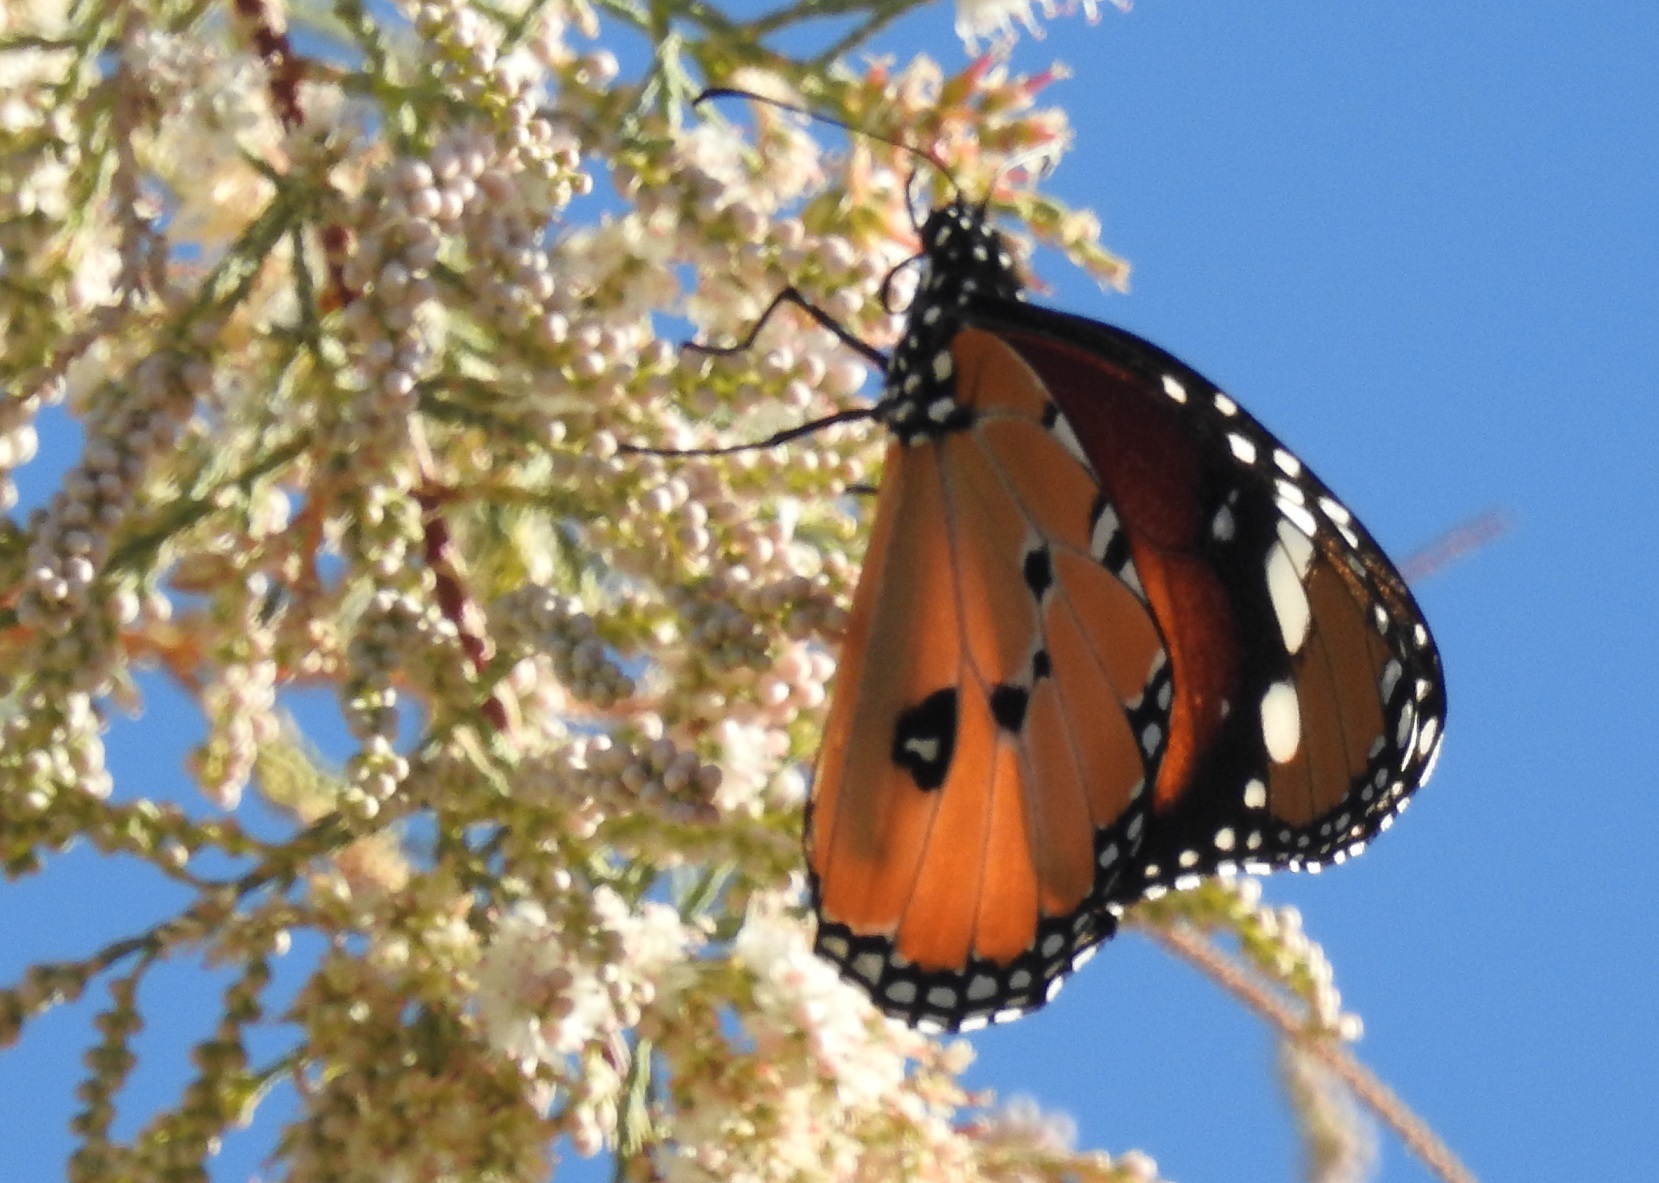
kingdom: Animalia
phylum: Arthropoda
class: Insecta
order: Lepidoptera
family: Nymphalidae
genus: Danaus
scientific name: Danaus chrysippus
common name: Plain tiger
